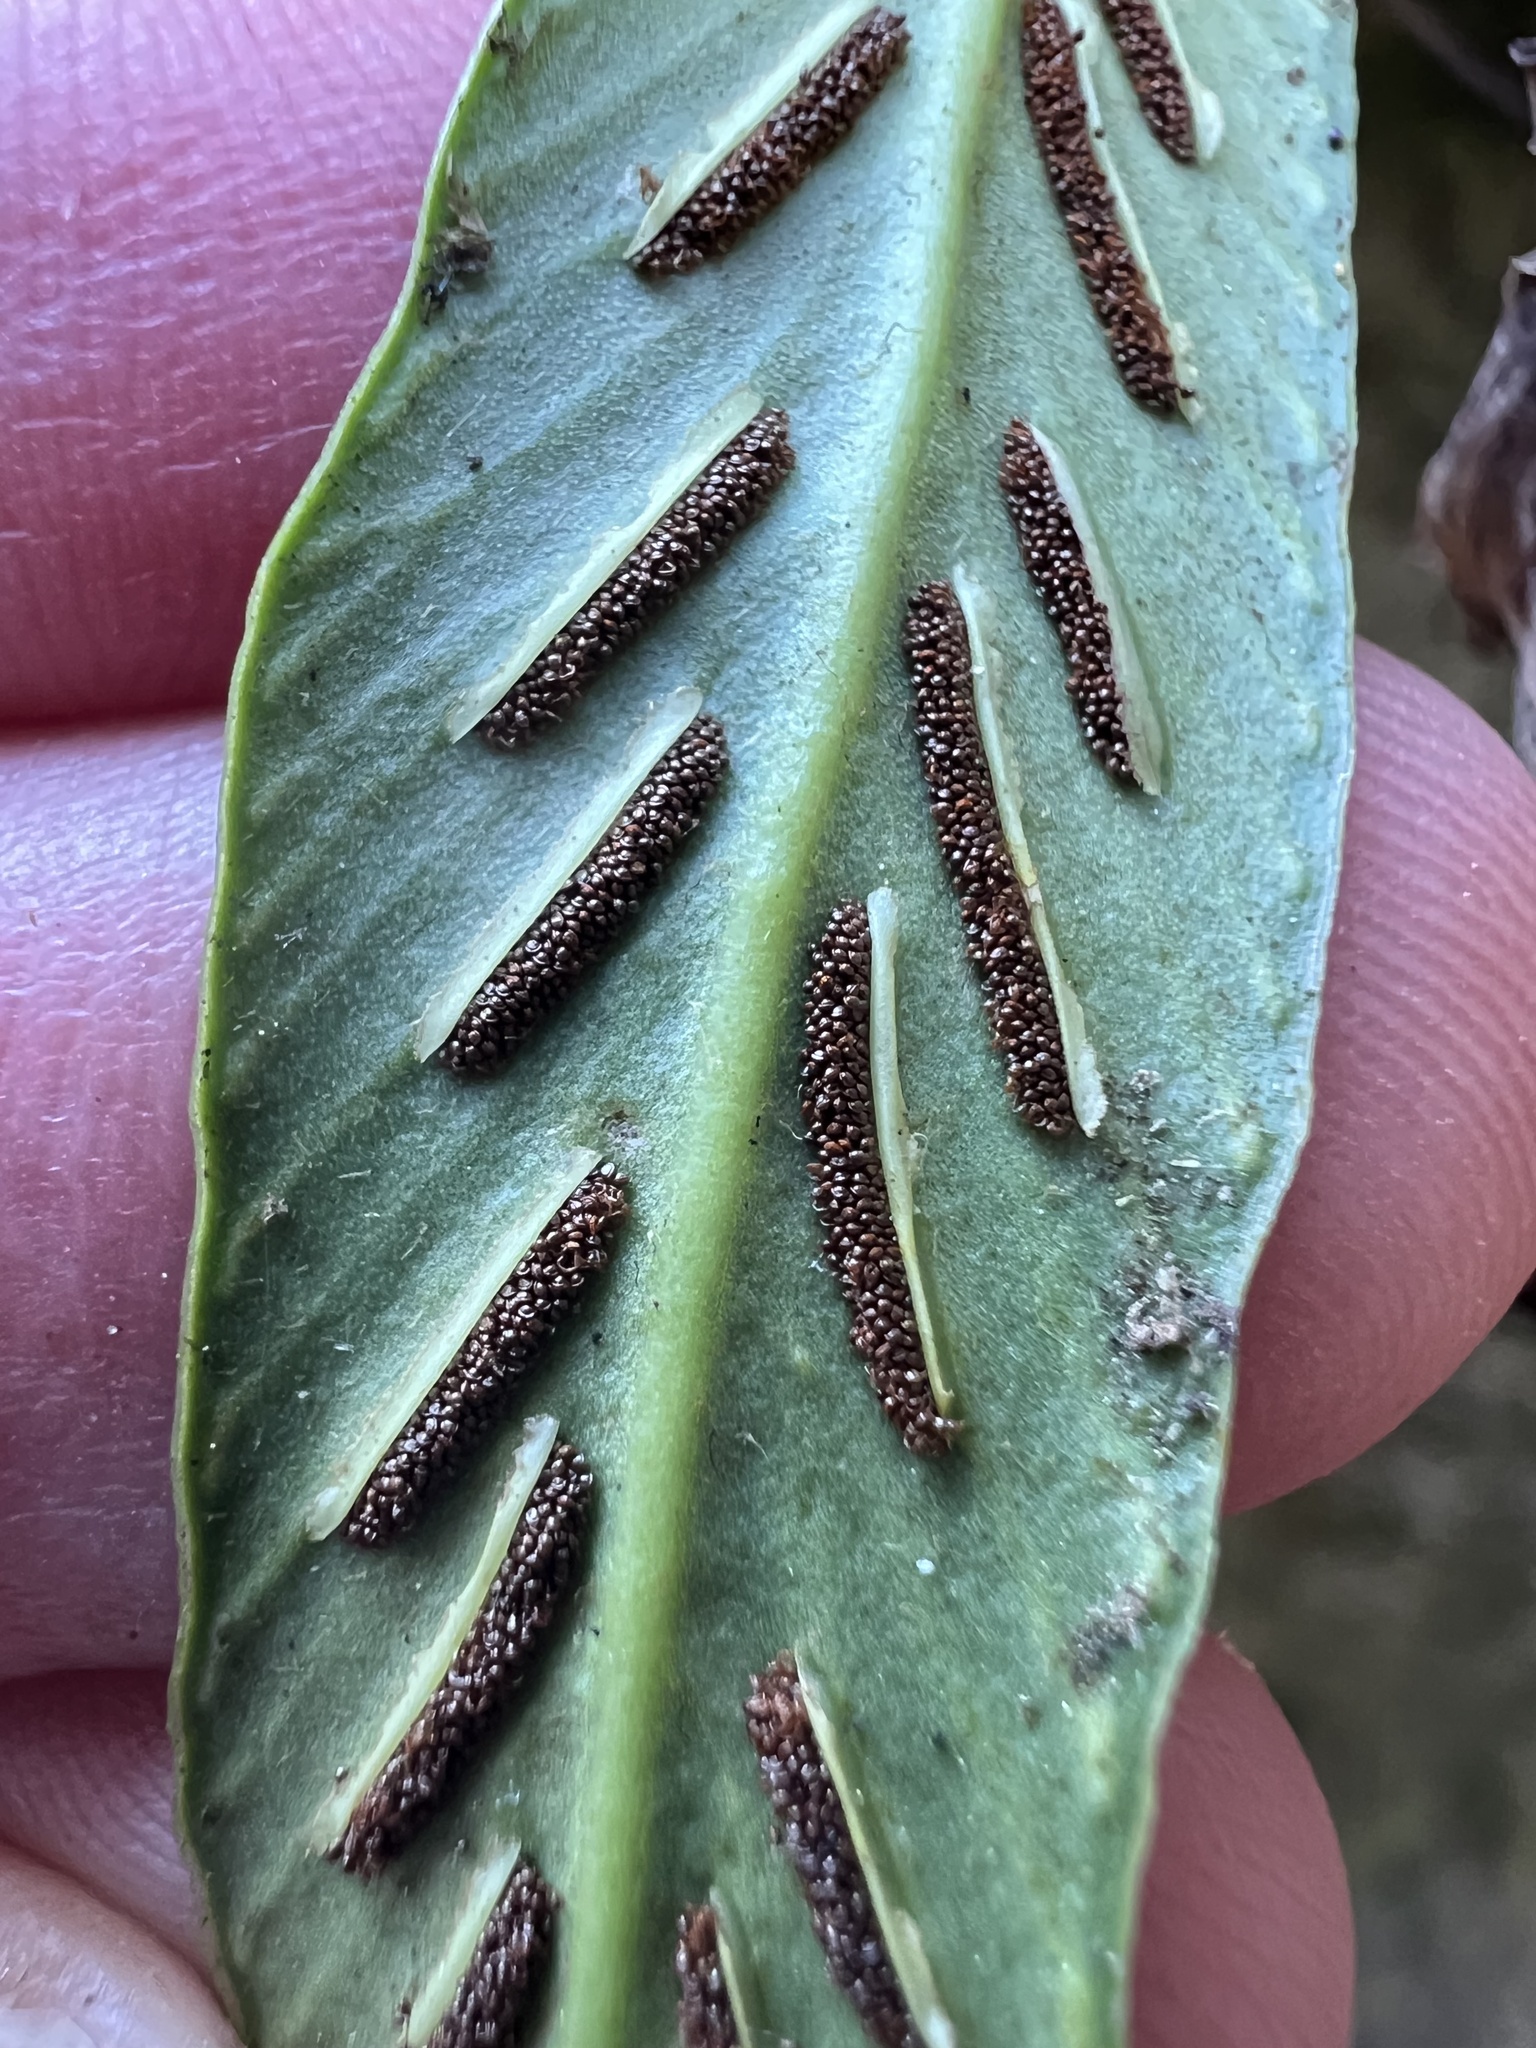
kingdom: Plantae
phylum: Tracheophyta
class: Polypodiopsida
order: Polypodiales
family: Aspleniaceae
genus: Asplenium
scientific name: Asplenium ensiforme
